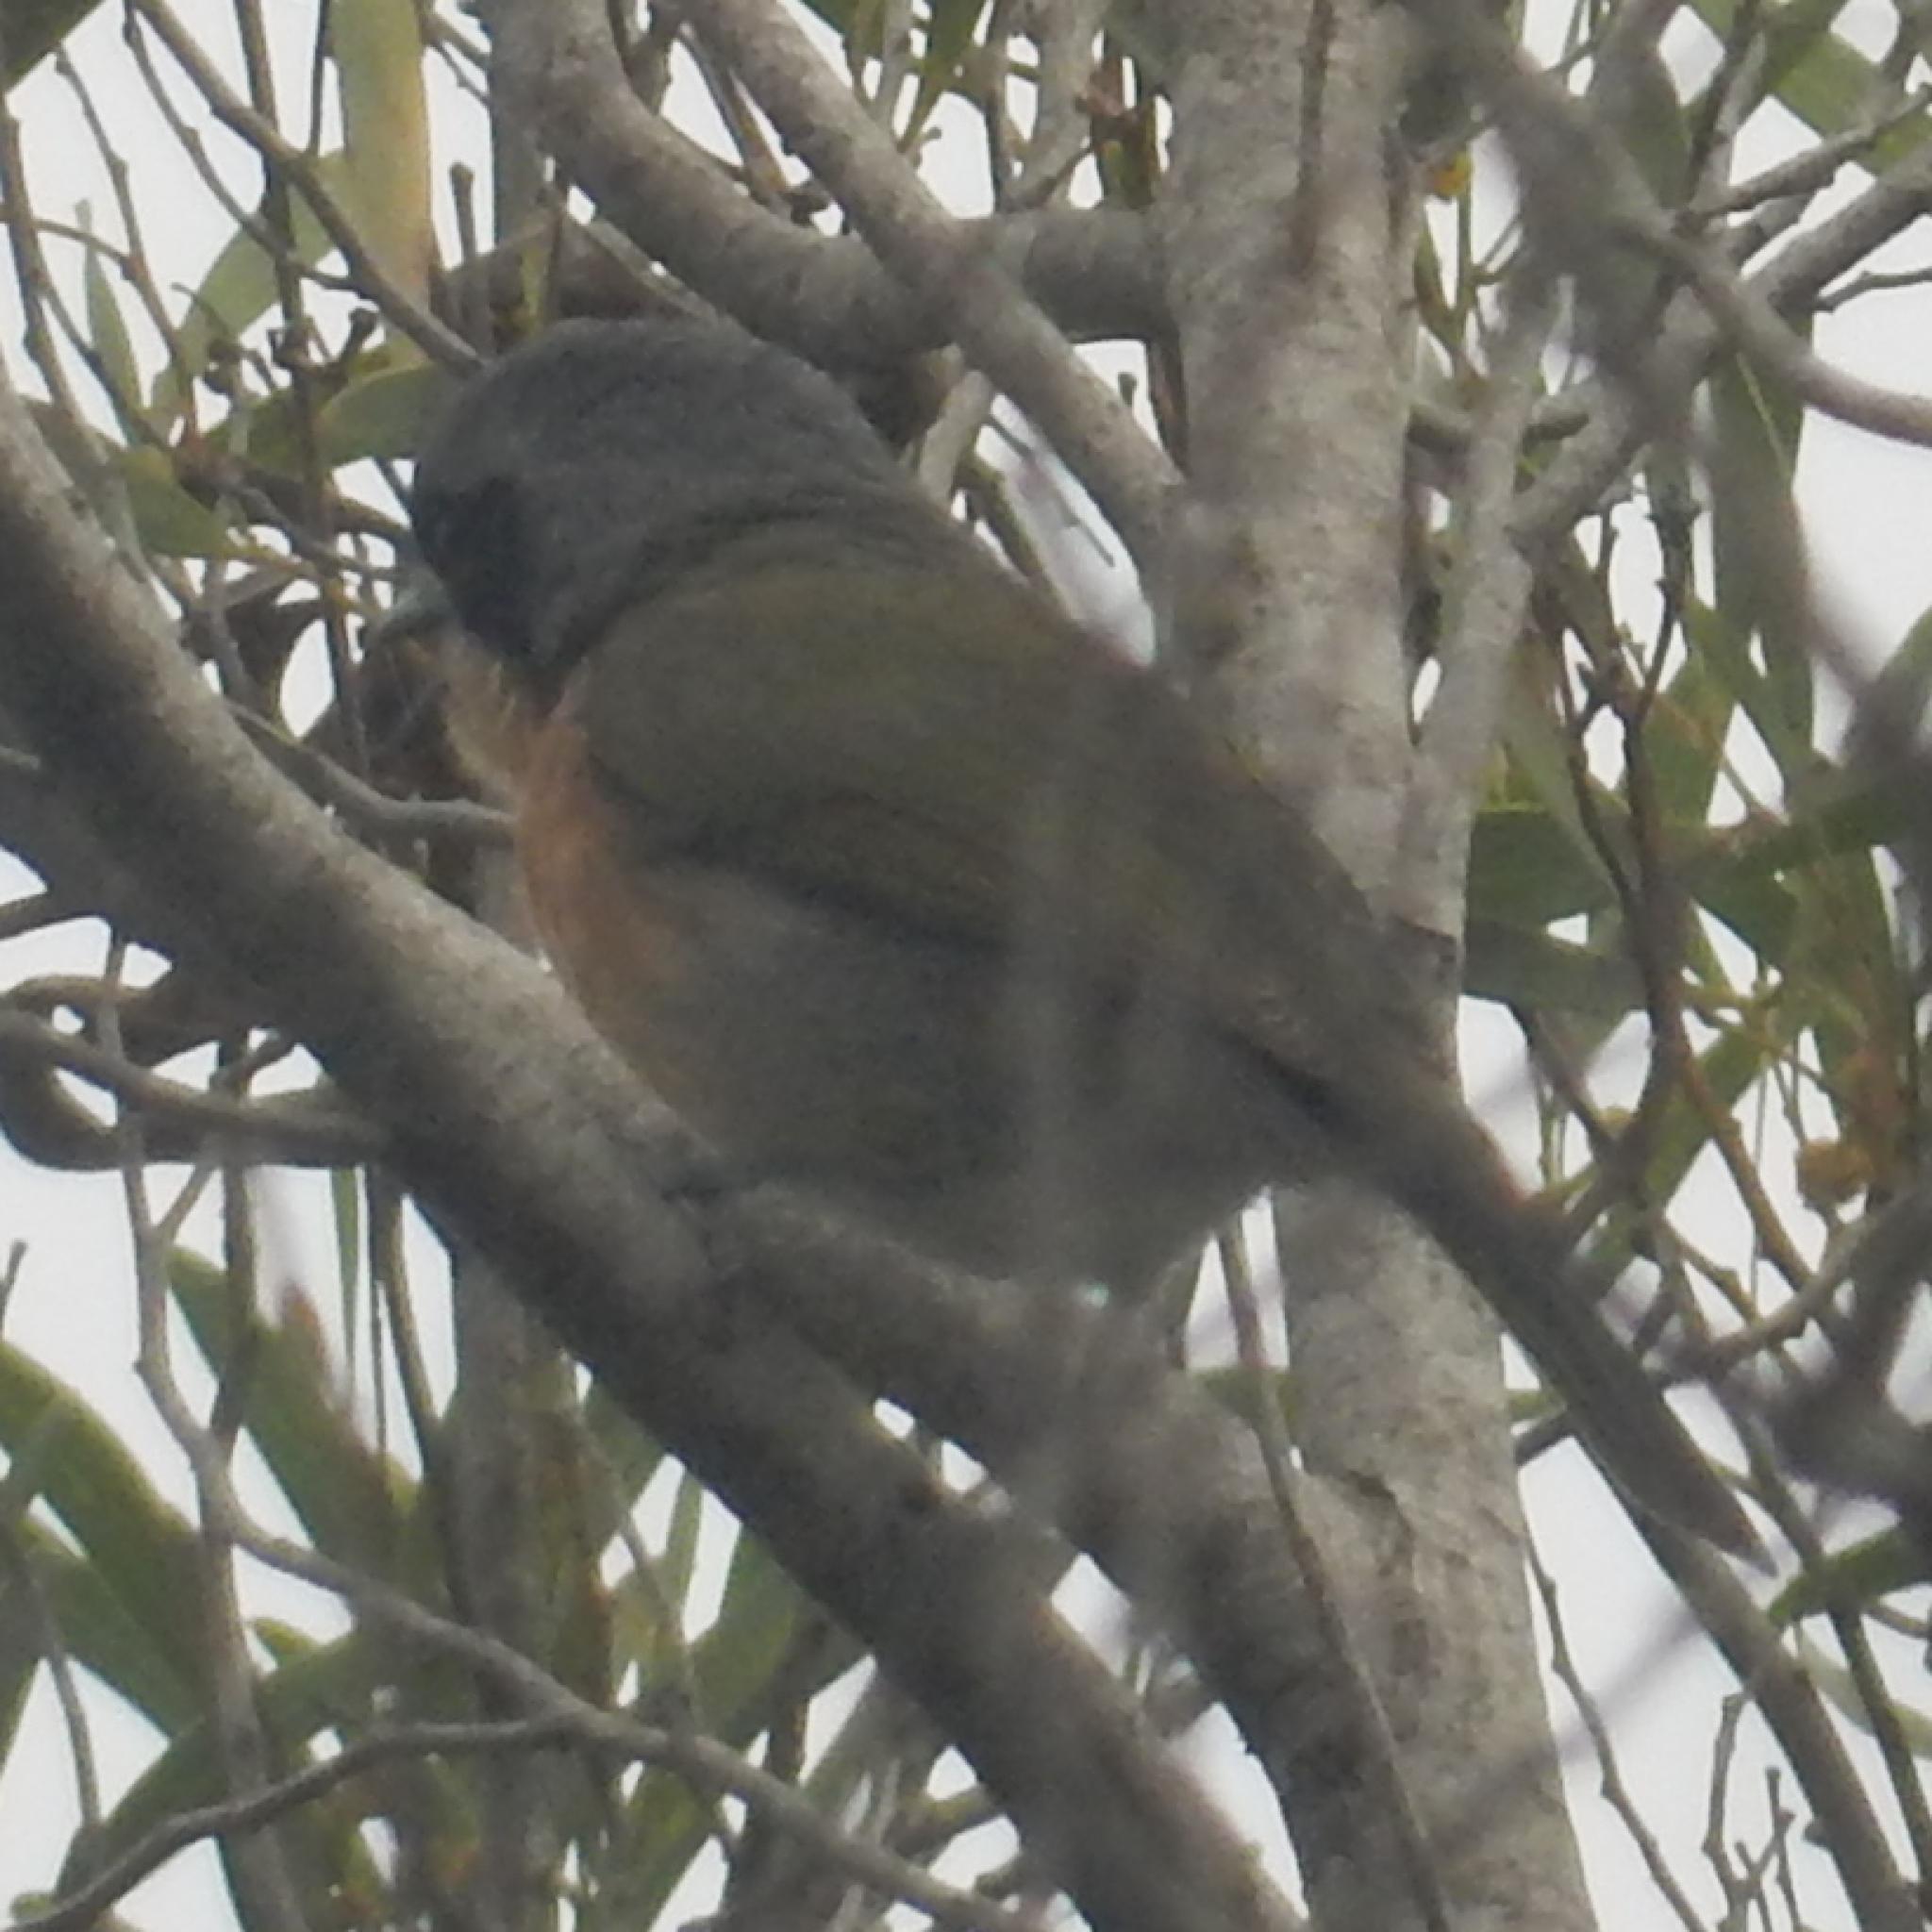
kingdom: Animalia
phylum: Chordata
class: Aves
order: Passeriformes
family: Malaconotidae
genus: Chlorophoneus
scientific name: Chlorophoneus olivaceus
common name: Olive bushshrike
